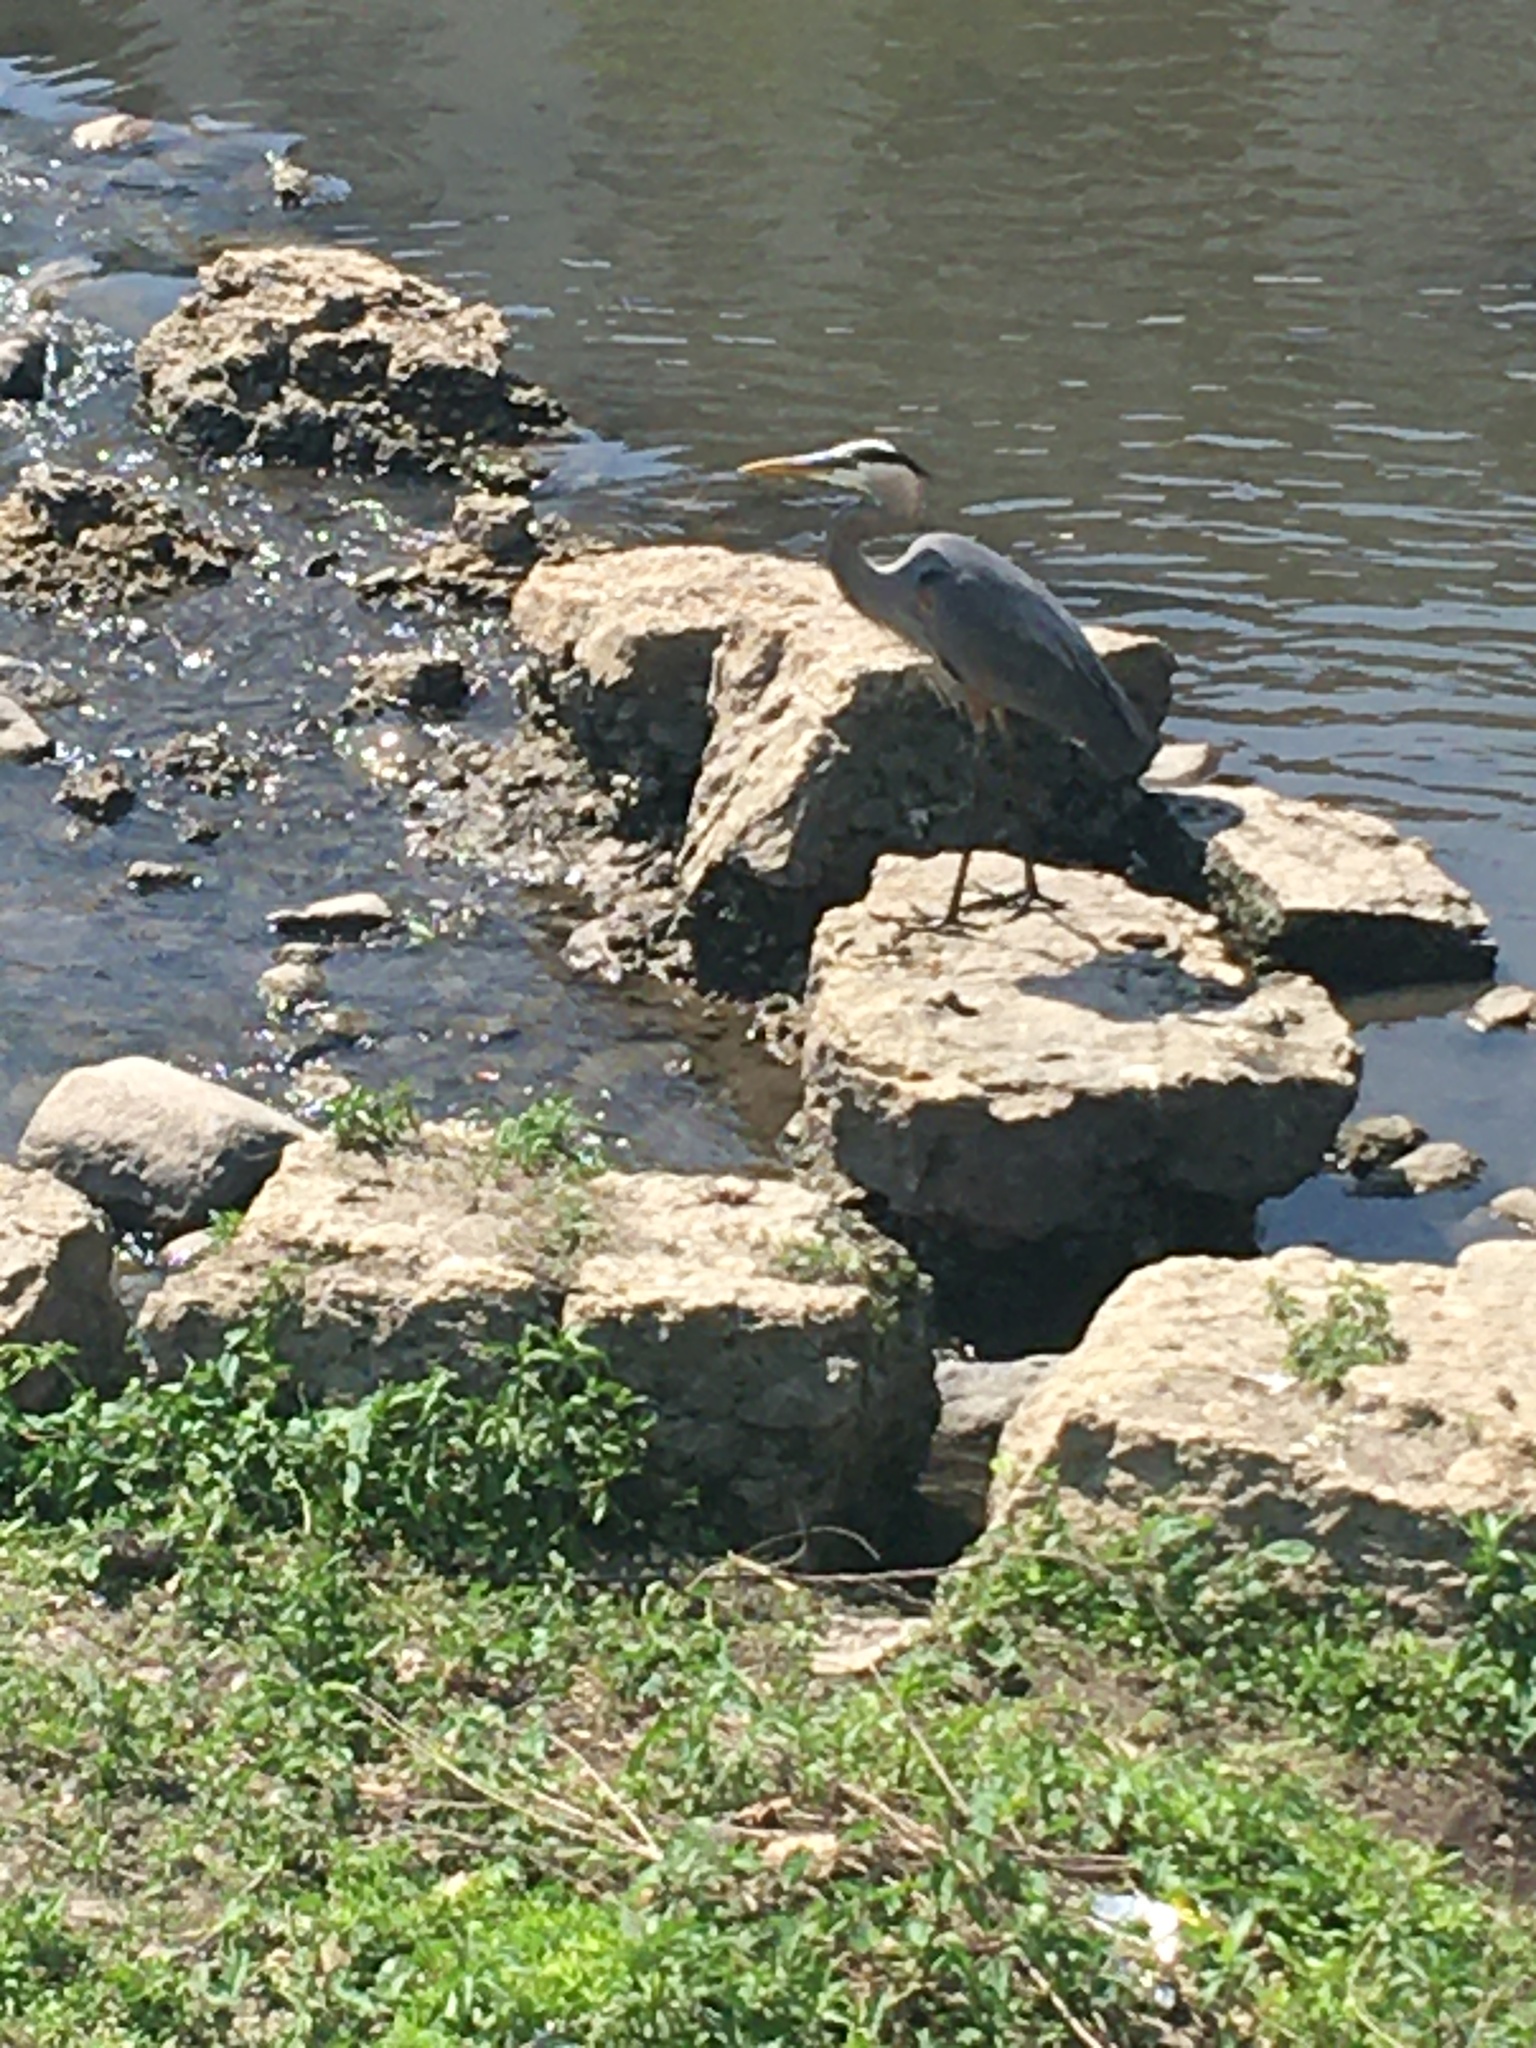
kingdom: Animalia
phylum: Chordata
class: Aves
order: Pelecaniformes
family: Ardeidae
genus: Ardea
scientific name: Ardea herodias
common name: Great blue heron
